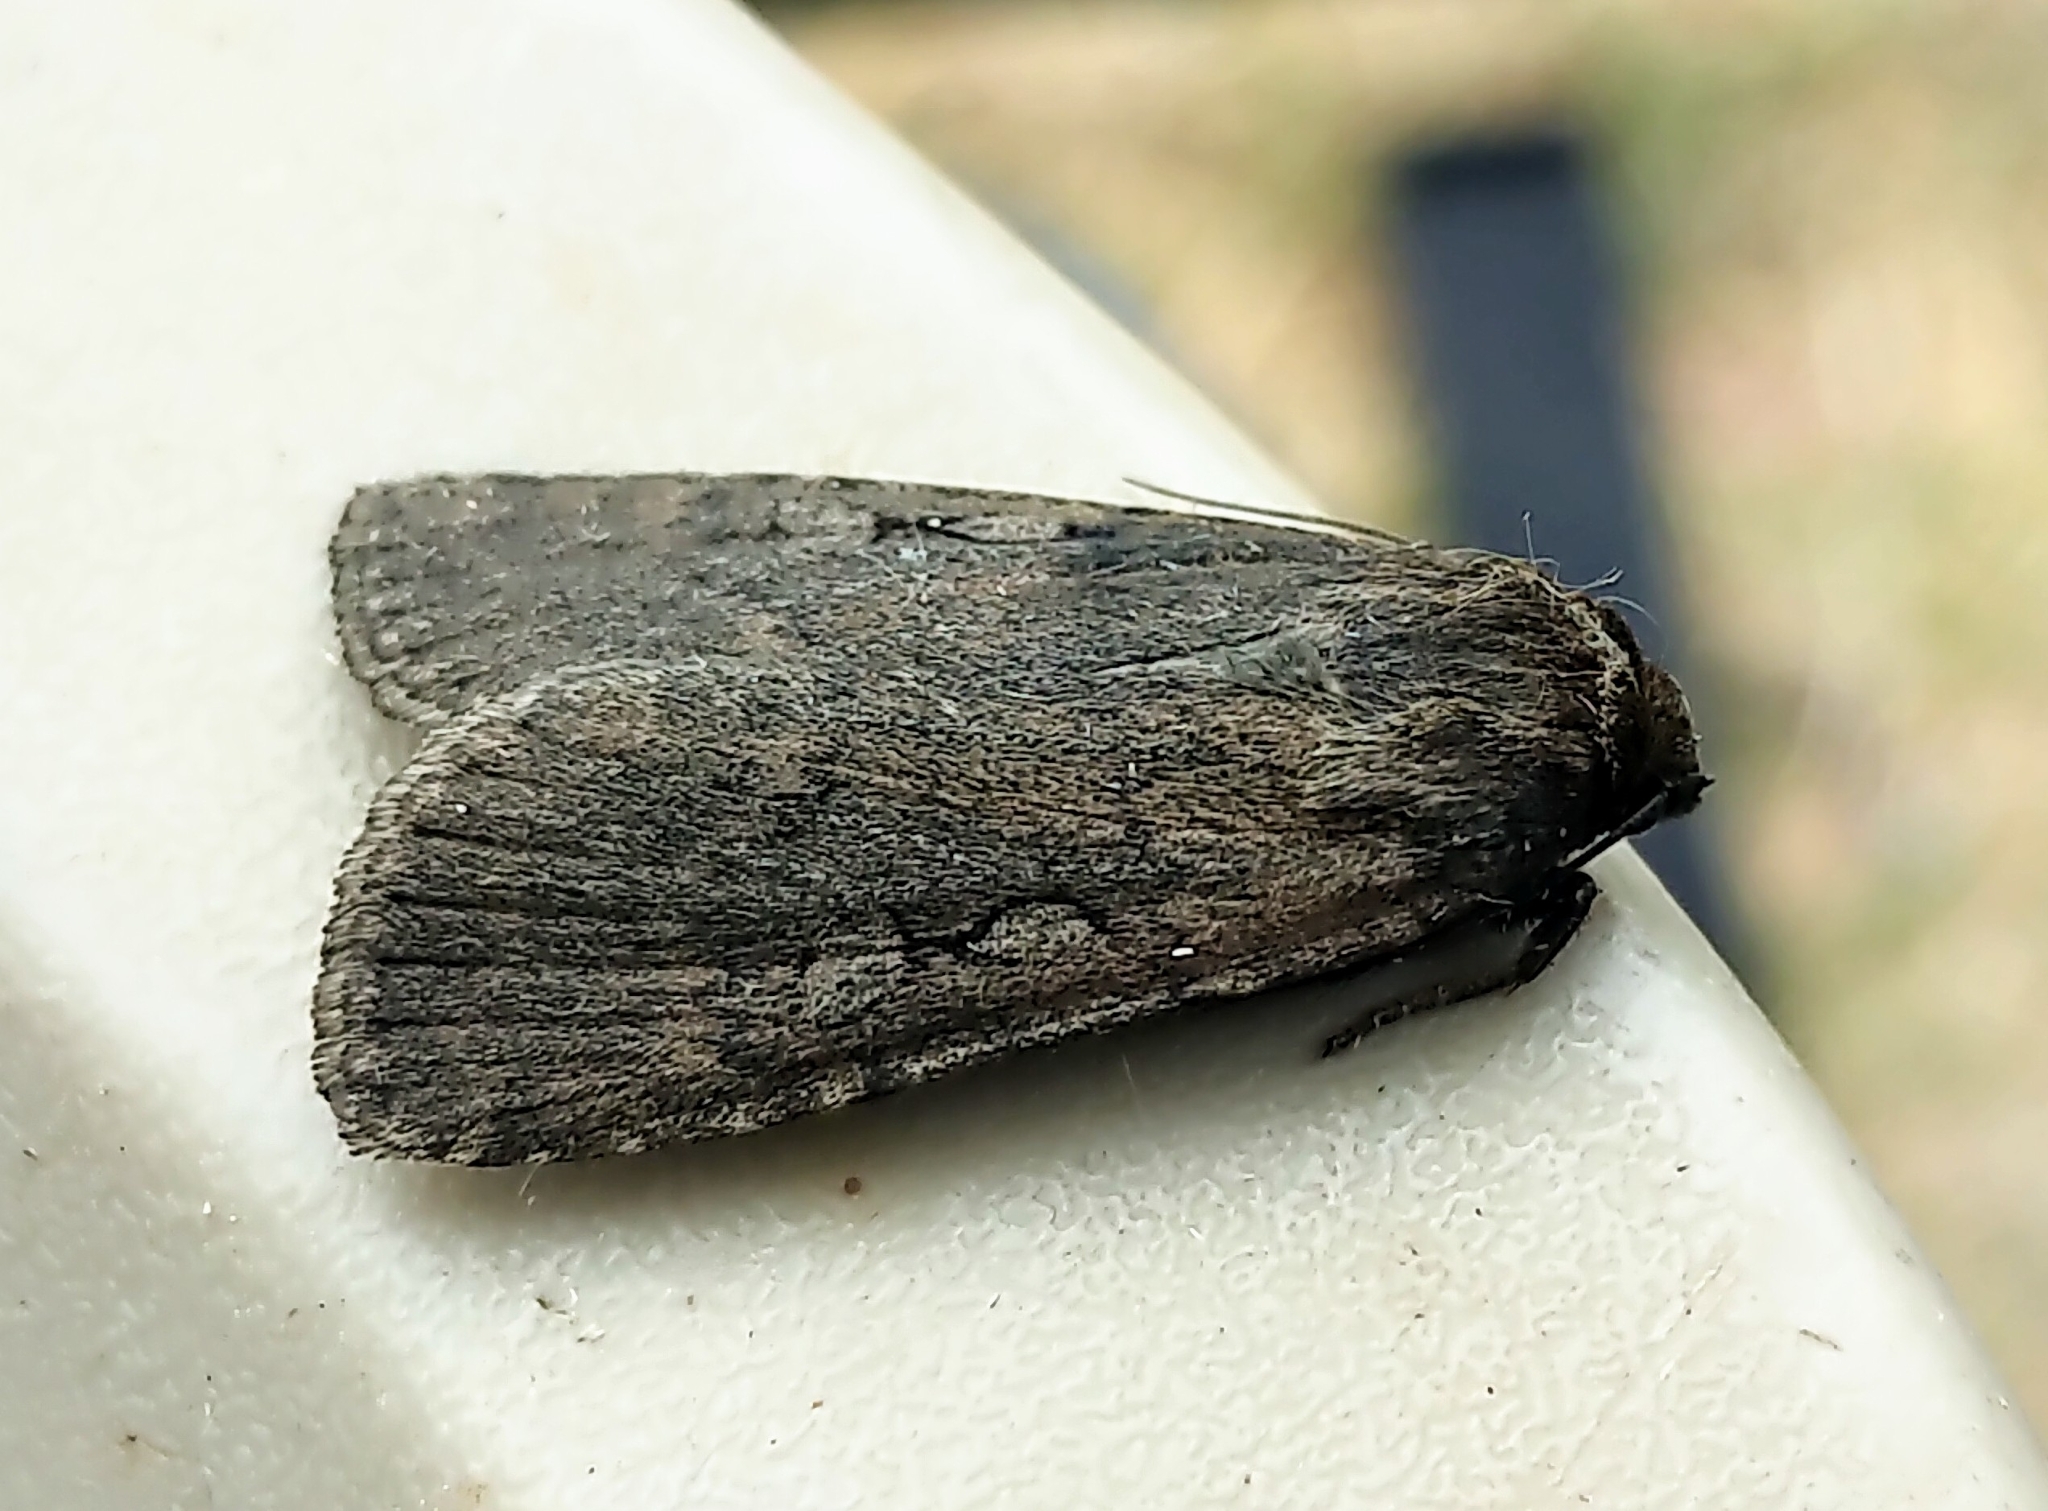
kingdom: Animalia
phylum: Arthropoda
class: Insecta
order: Lepidoptera
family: Noctuidae
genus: Spaelotis
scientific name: Spaelotis clandestina
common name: Clandestine dart
